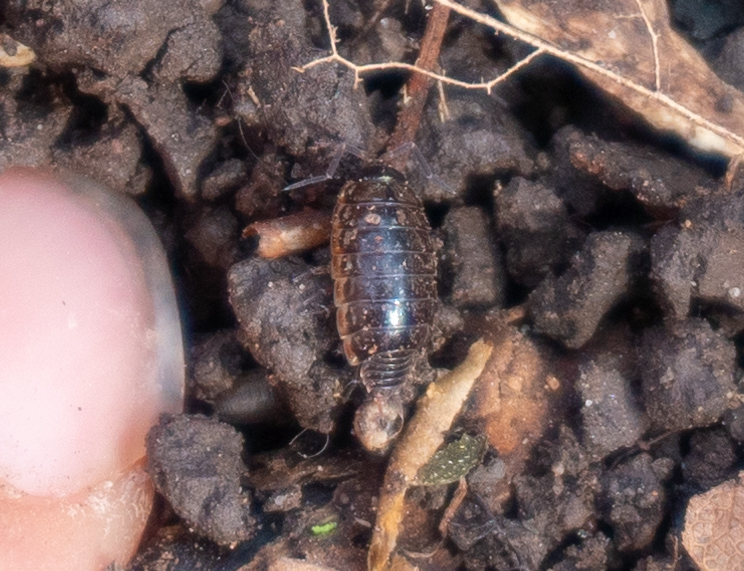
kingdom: Animalia
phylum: Arthropoda
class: Malacostraca
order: Isopoda
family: Philosciidae
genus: Philoscia
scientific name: Philoscia muscorum
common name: Common striped woodlouse
